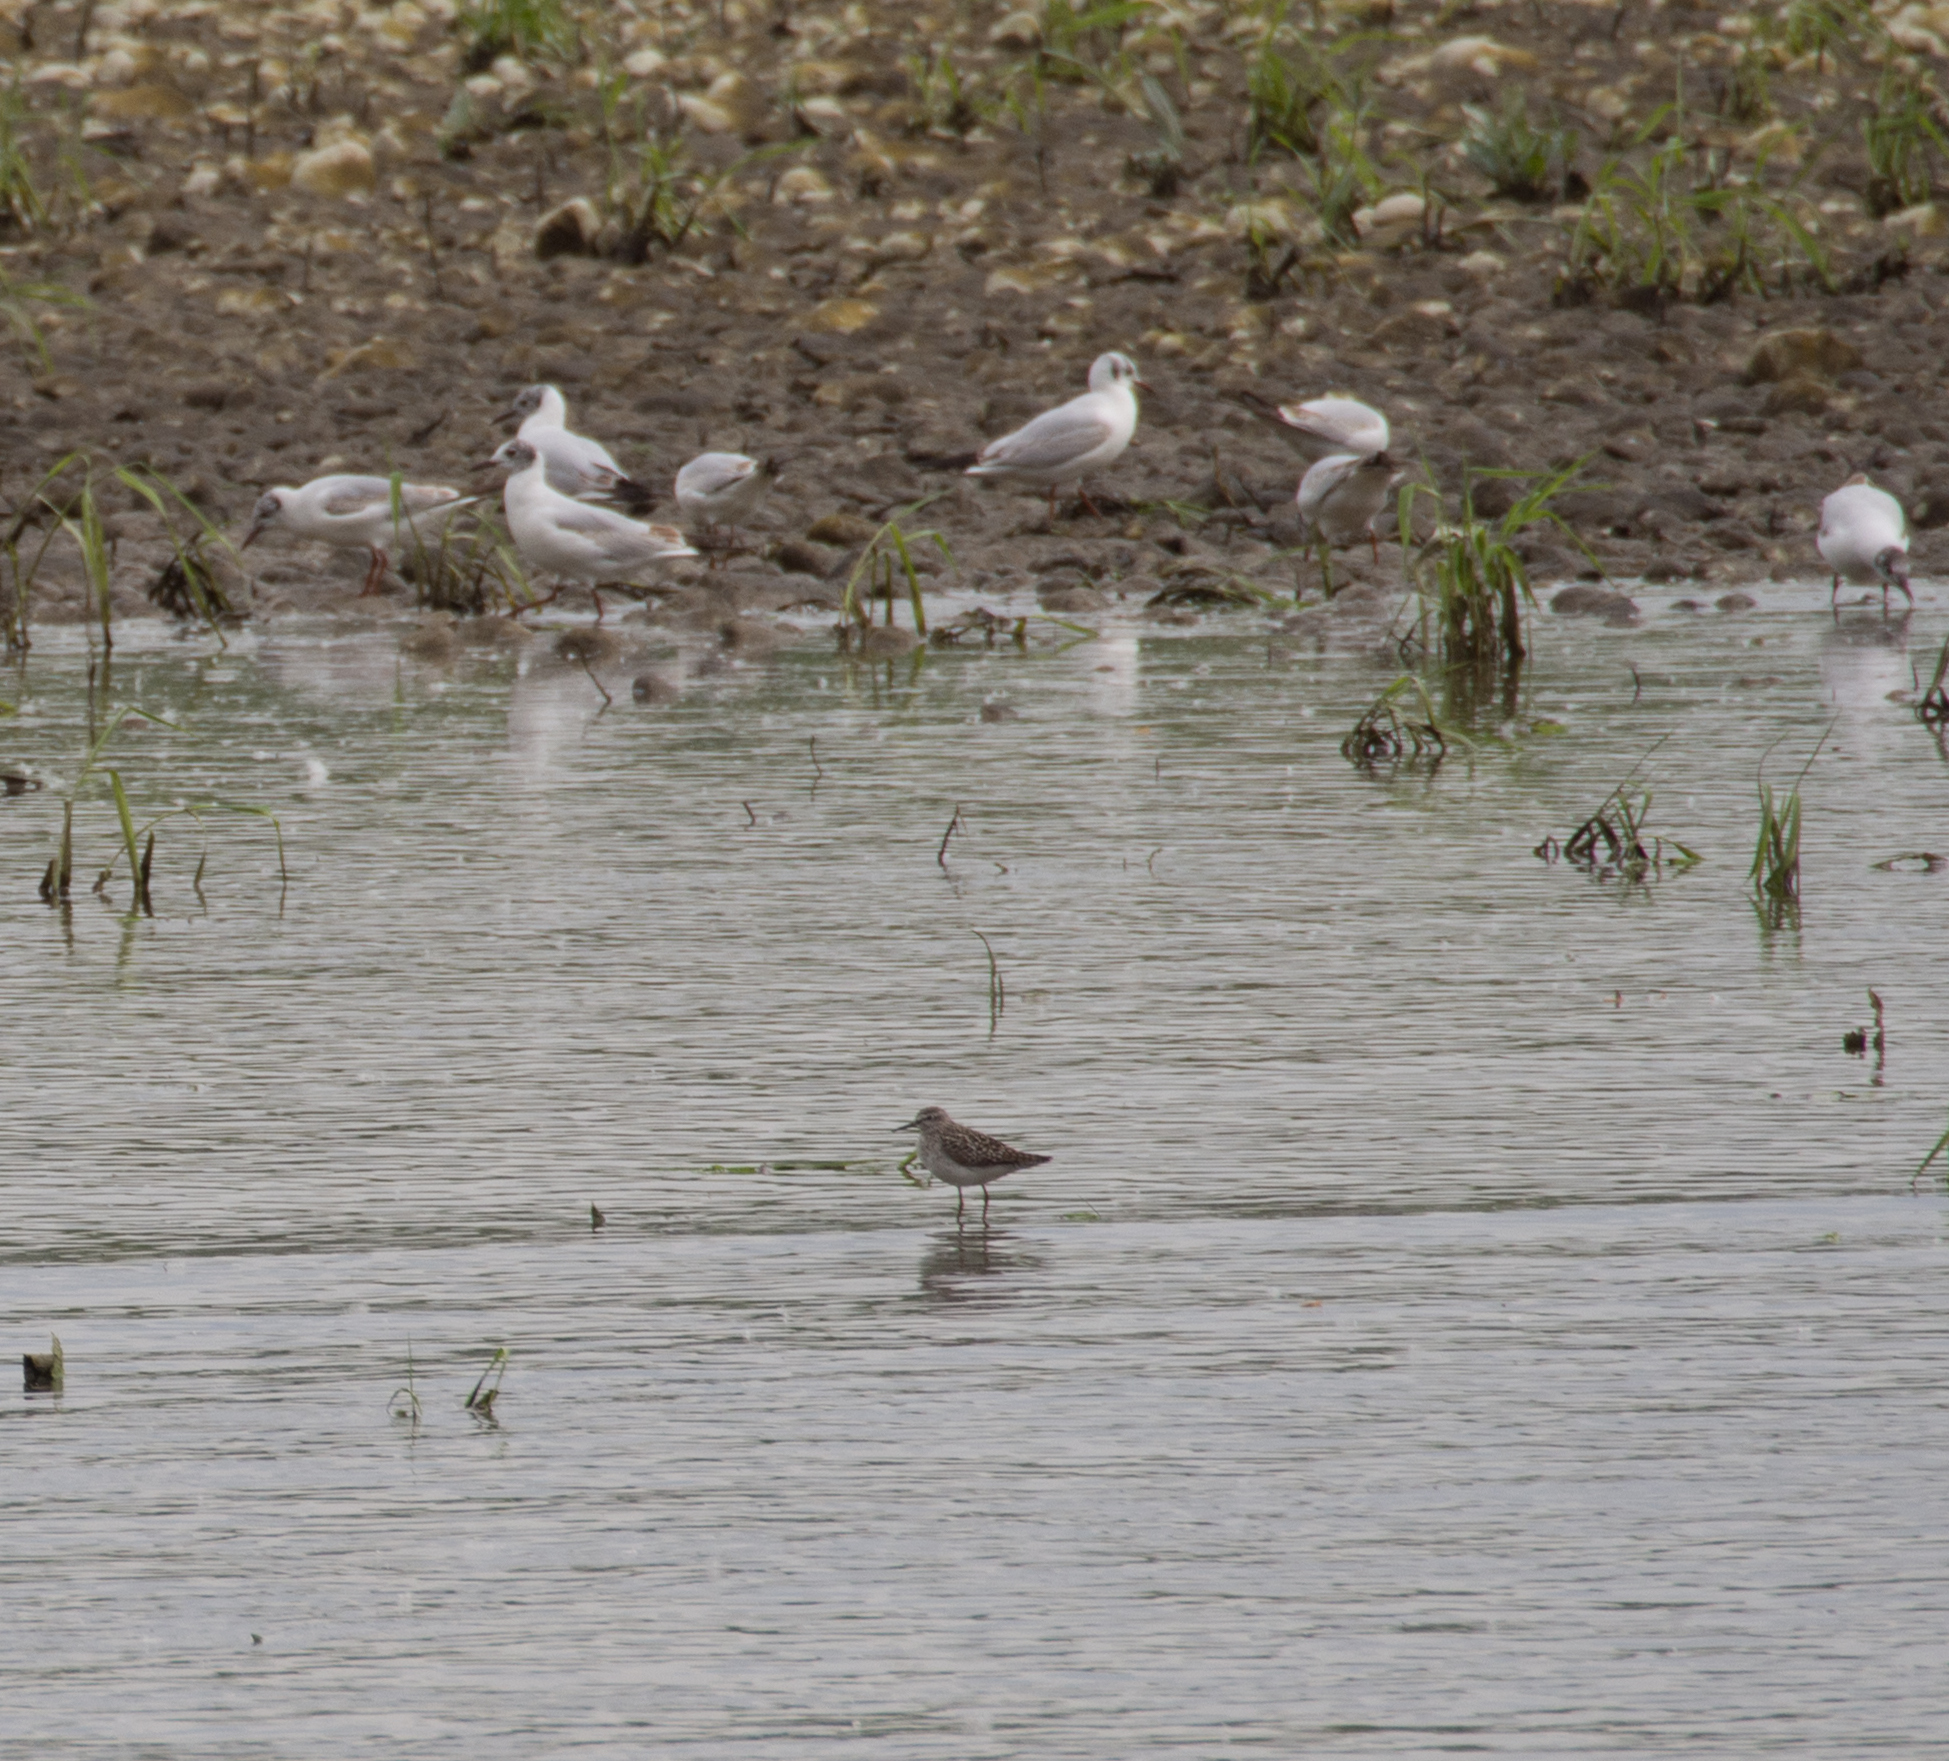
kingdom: Animalia
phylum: Chordata
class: Aves
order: Charadriiformes
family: Scolopacidae
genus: Tringa
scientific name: Tringa glareola
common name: Wood sandpiper
